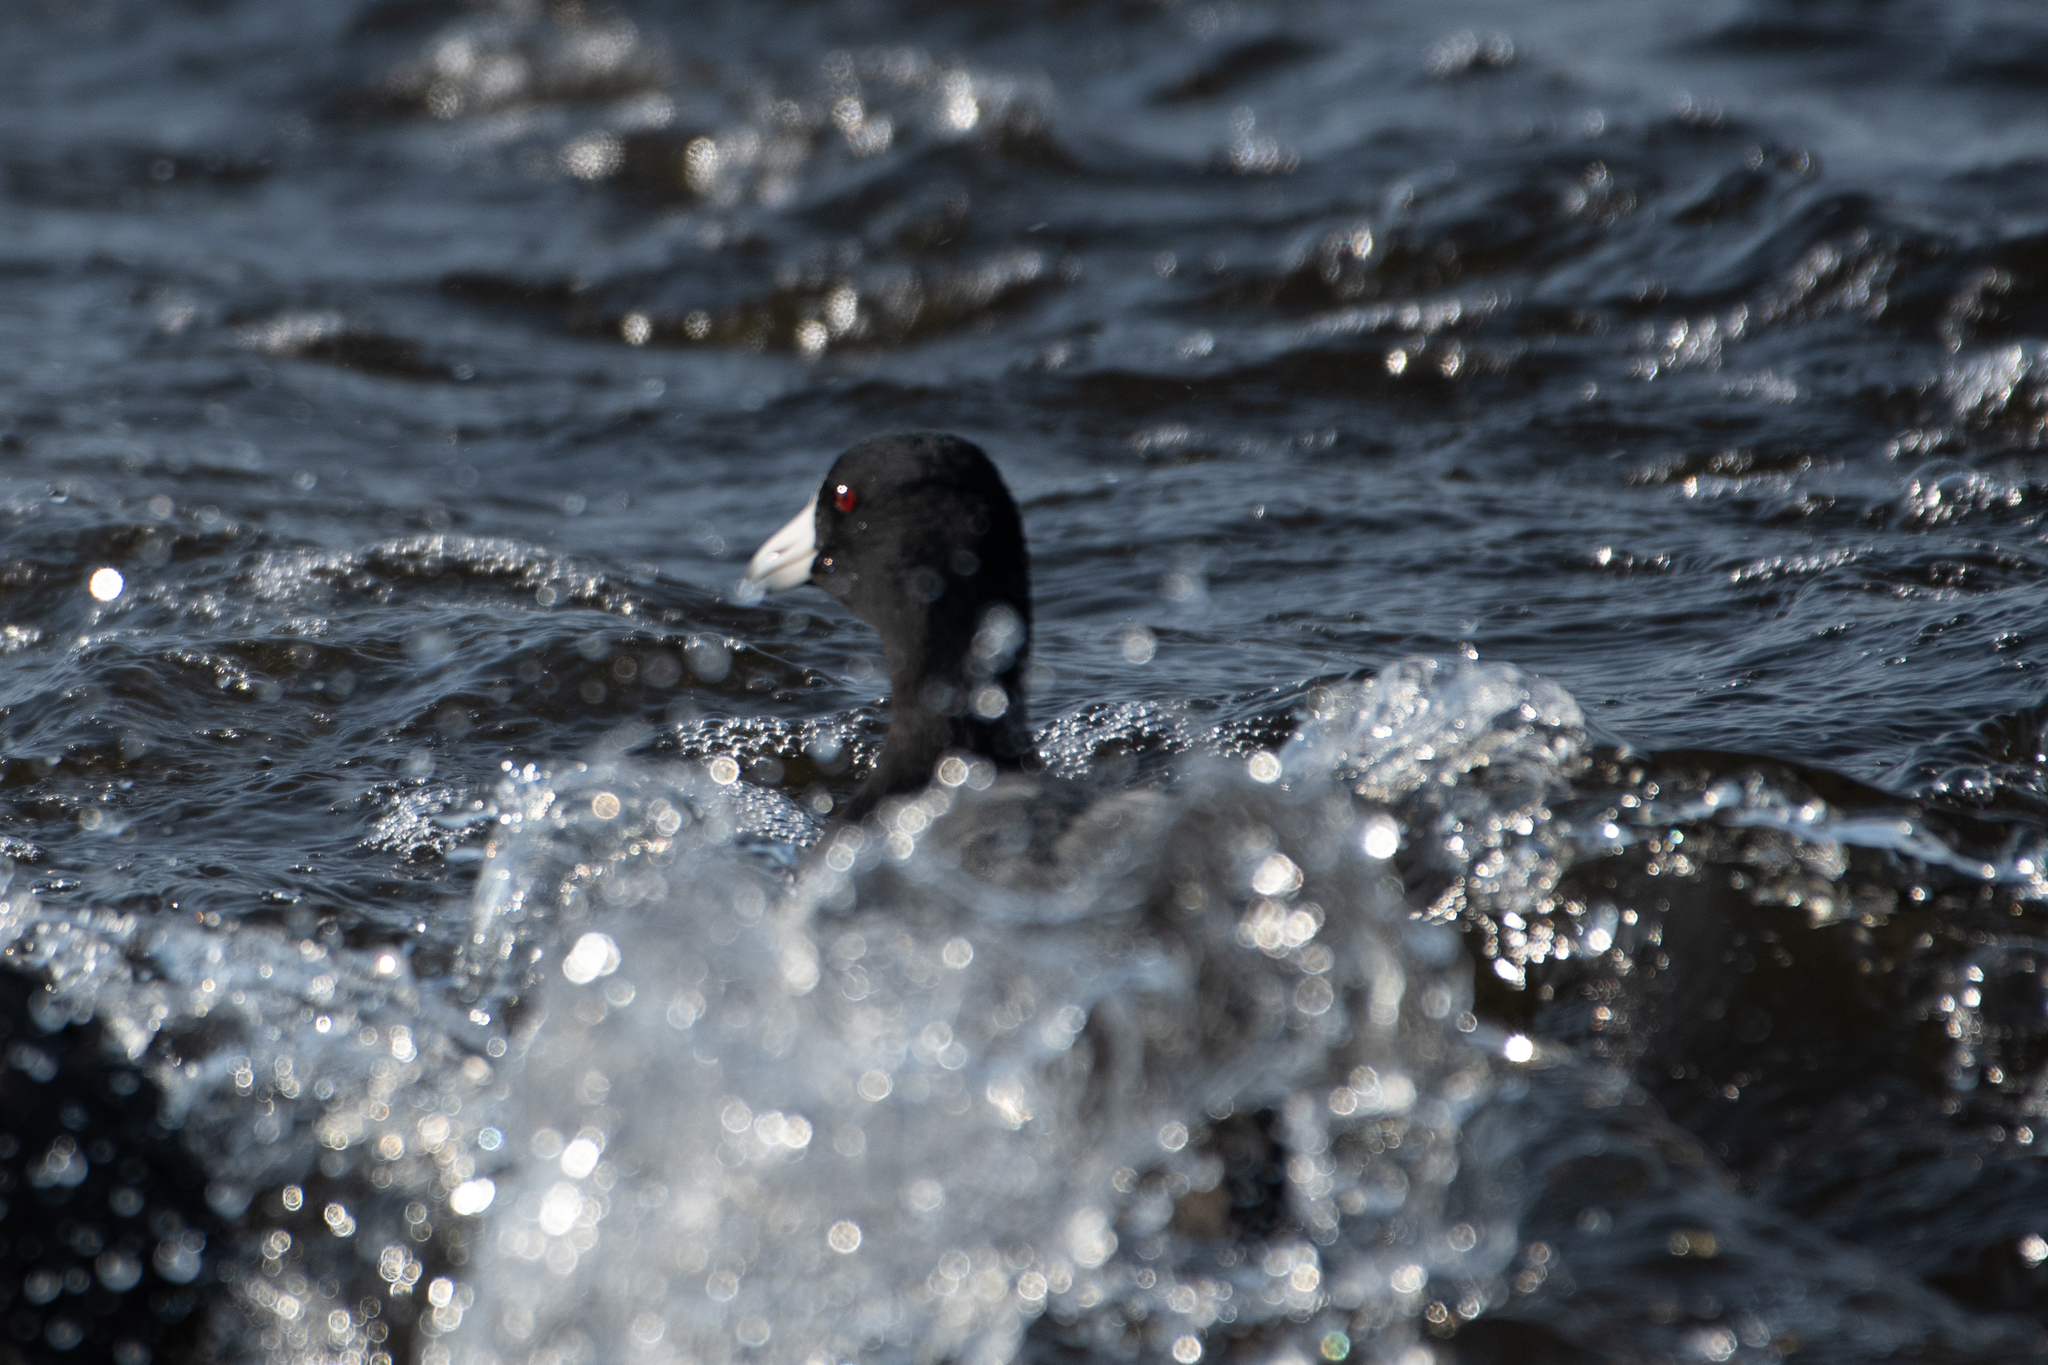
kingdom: Animalia
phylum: Chordata
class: Aves
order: Gruiformes
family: Rallidae
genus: Fulica
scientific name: Fulica americana
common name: American coot
